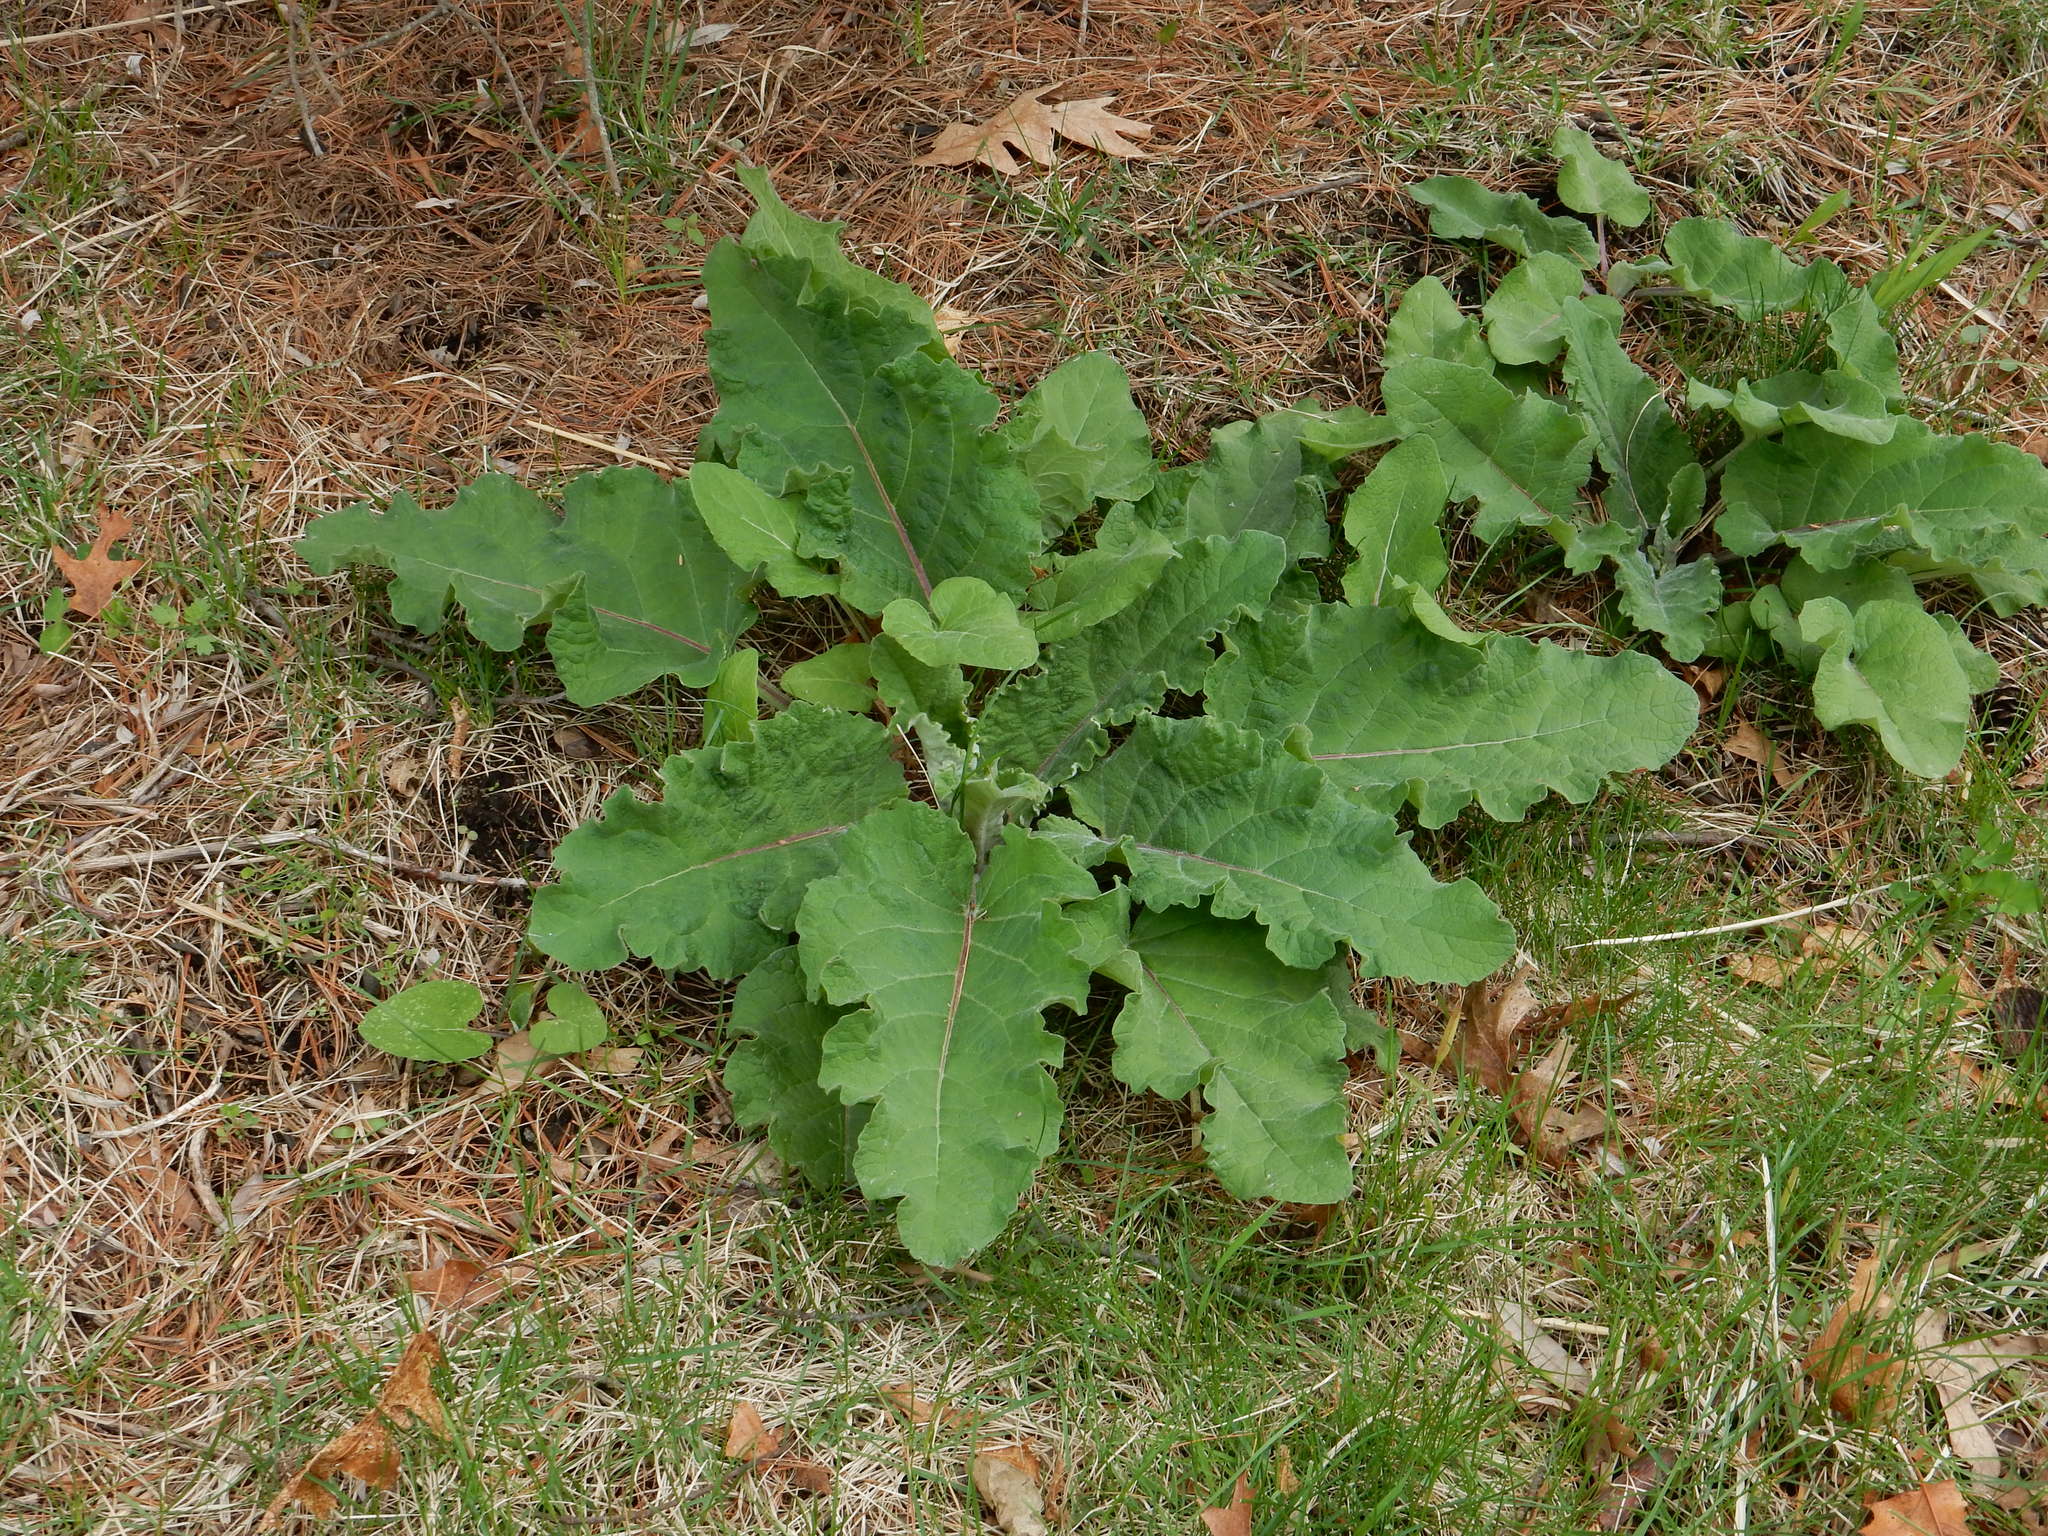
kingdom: Plantae
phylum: Tracheophyta
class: Magnoliopsida
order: Asterales
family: Asteraceae
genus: Arctium
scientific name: Arctium
